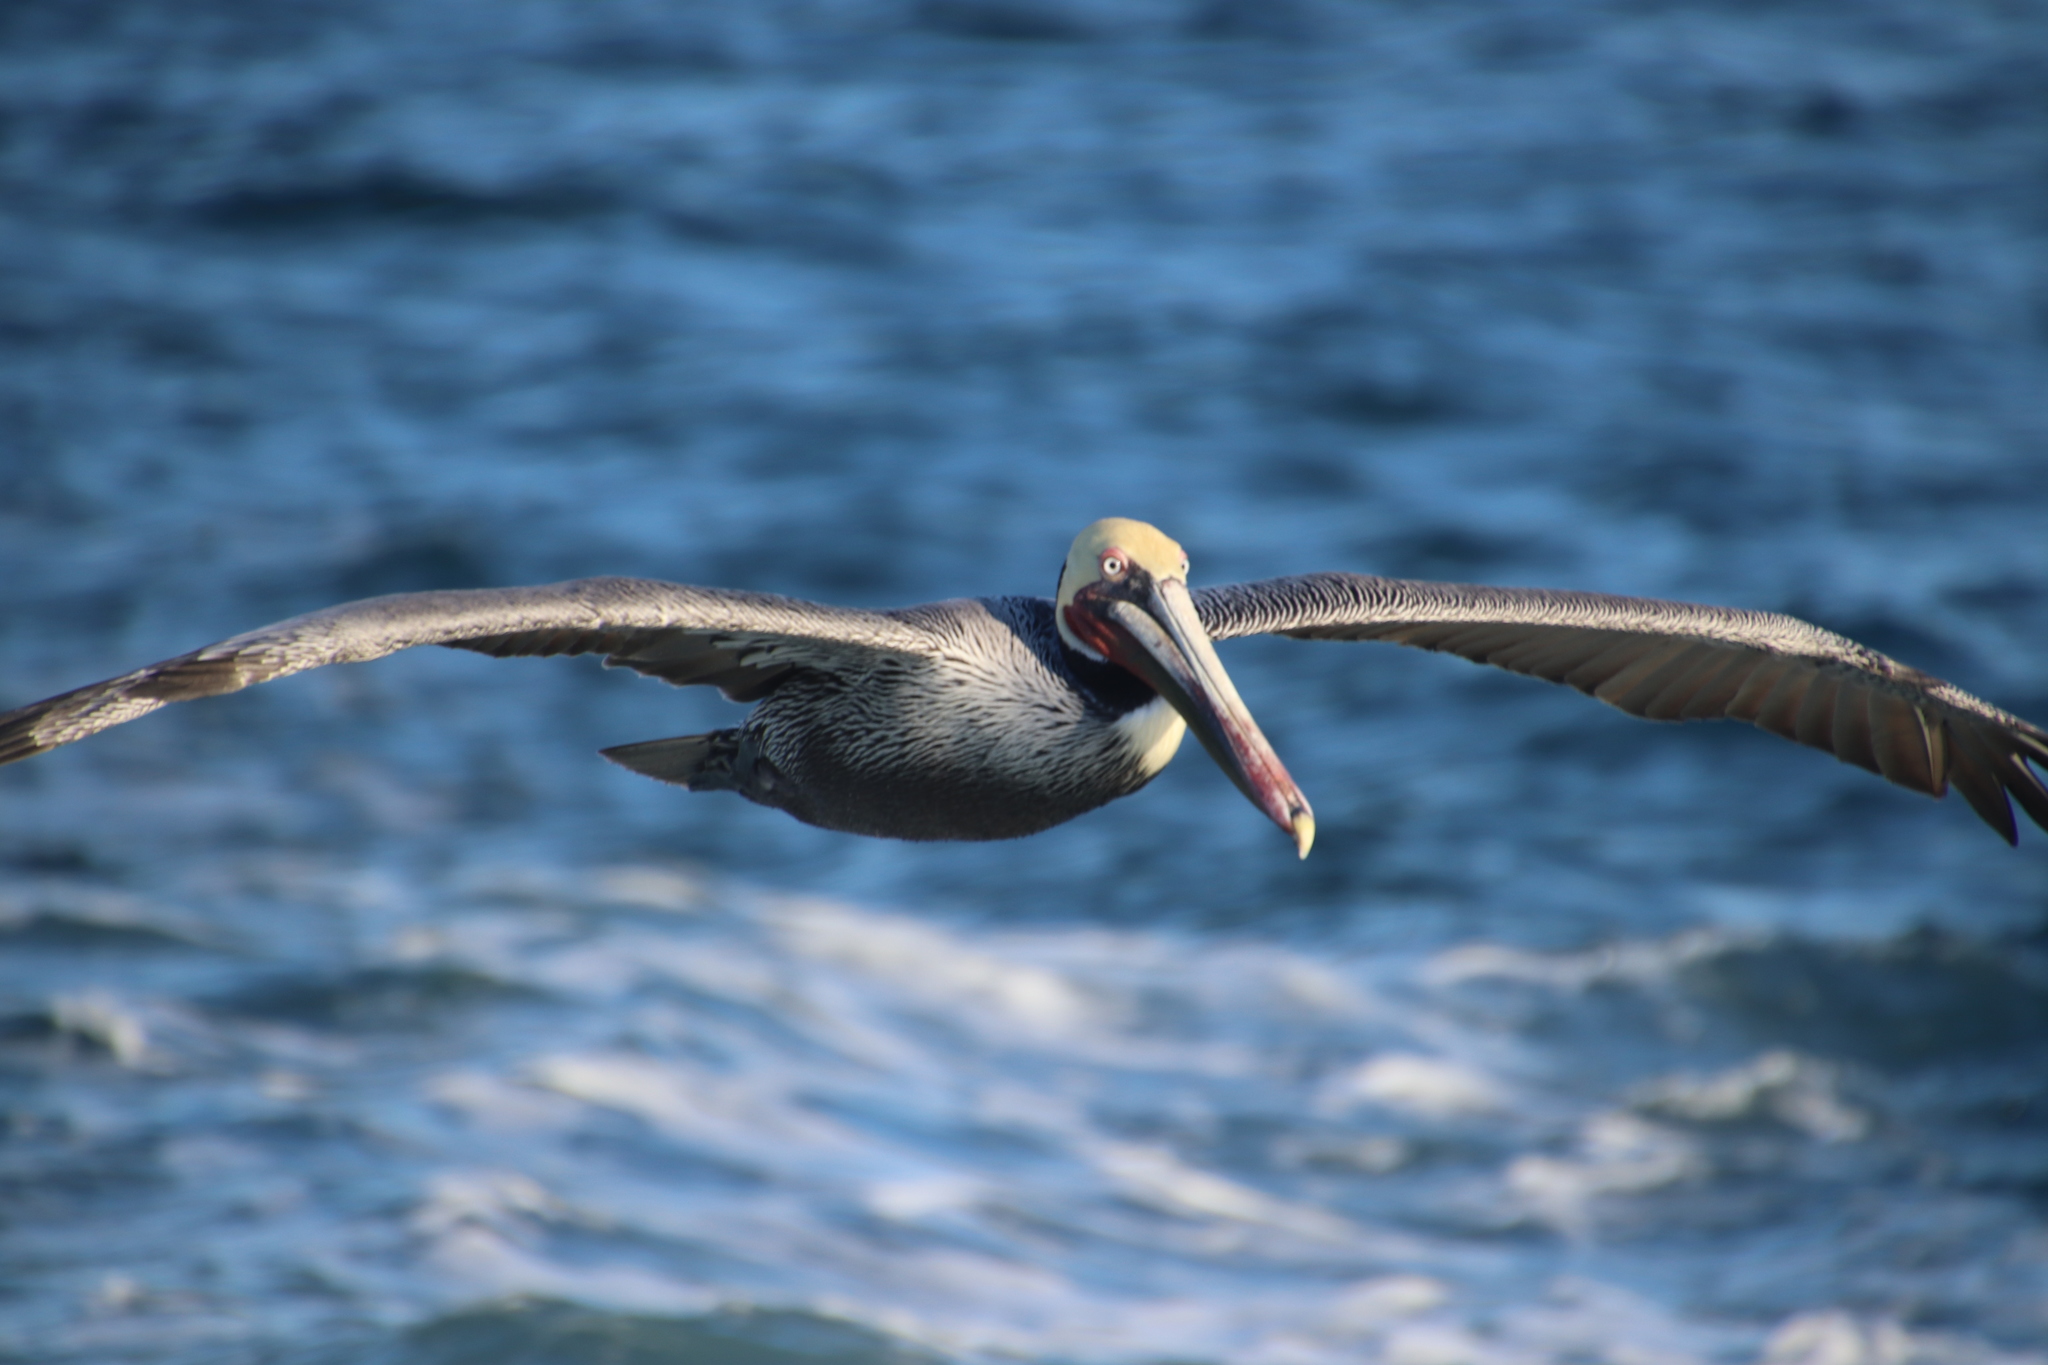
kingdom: Animalia
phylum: Chordata
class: Aves
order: Pelecaniformes
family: Pelecanidae
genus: Pelecanus
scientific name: Pelecanus occidentalis
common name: Brown pelican
